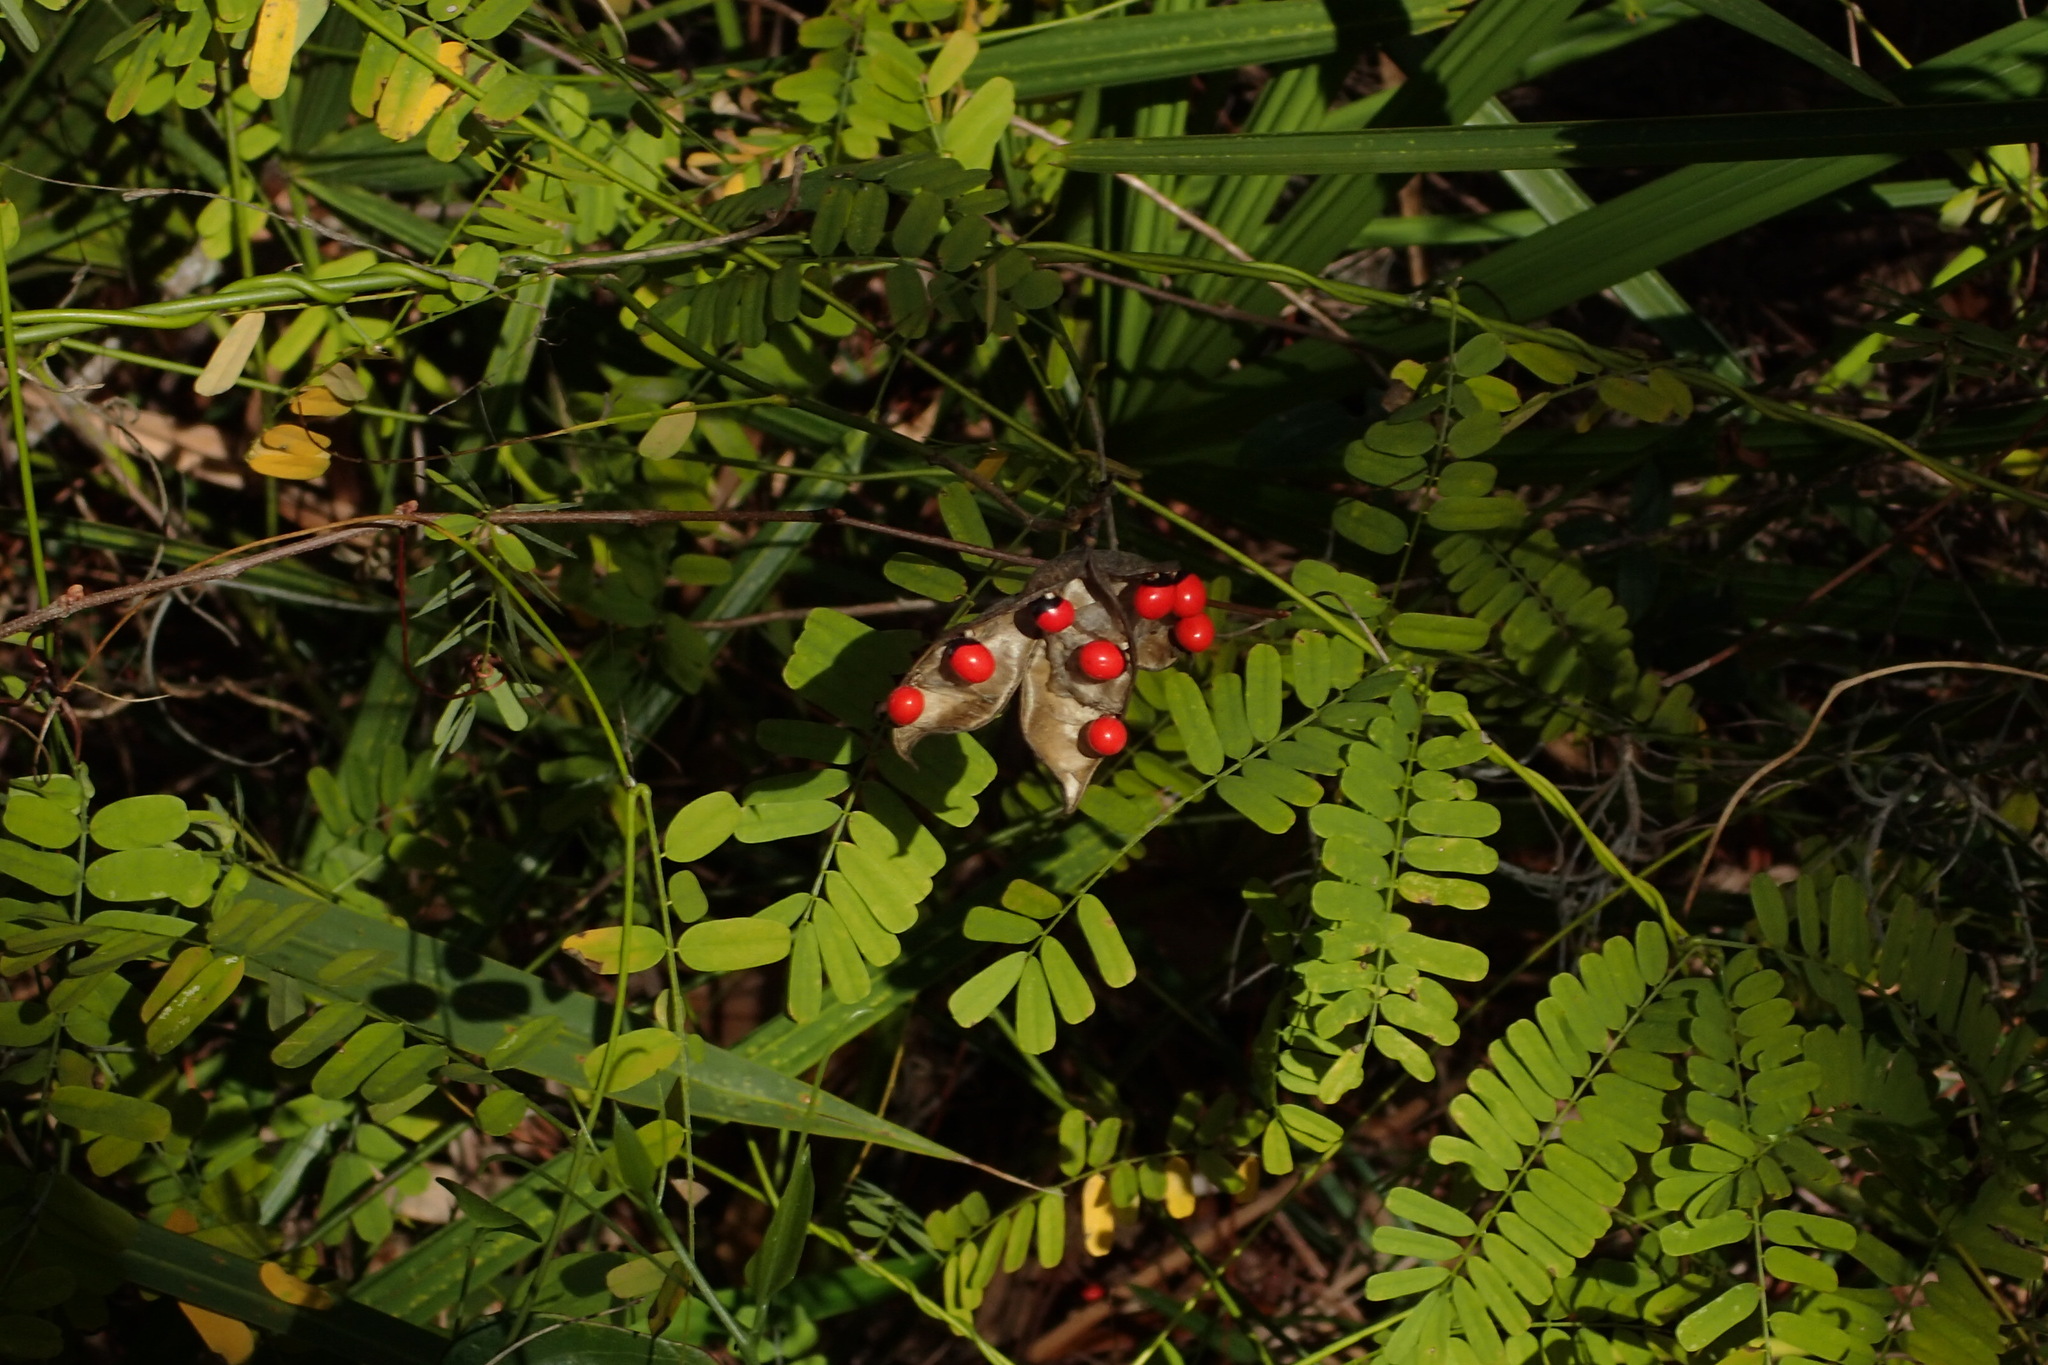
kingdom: Plantae
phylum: Tracheophyta
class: Magnoliopsida
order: Fabales
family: Fabaceae
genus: Abrus
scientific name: Abrus precatorius
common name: Rosarypea
